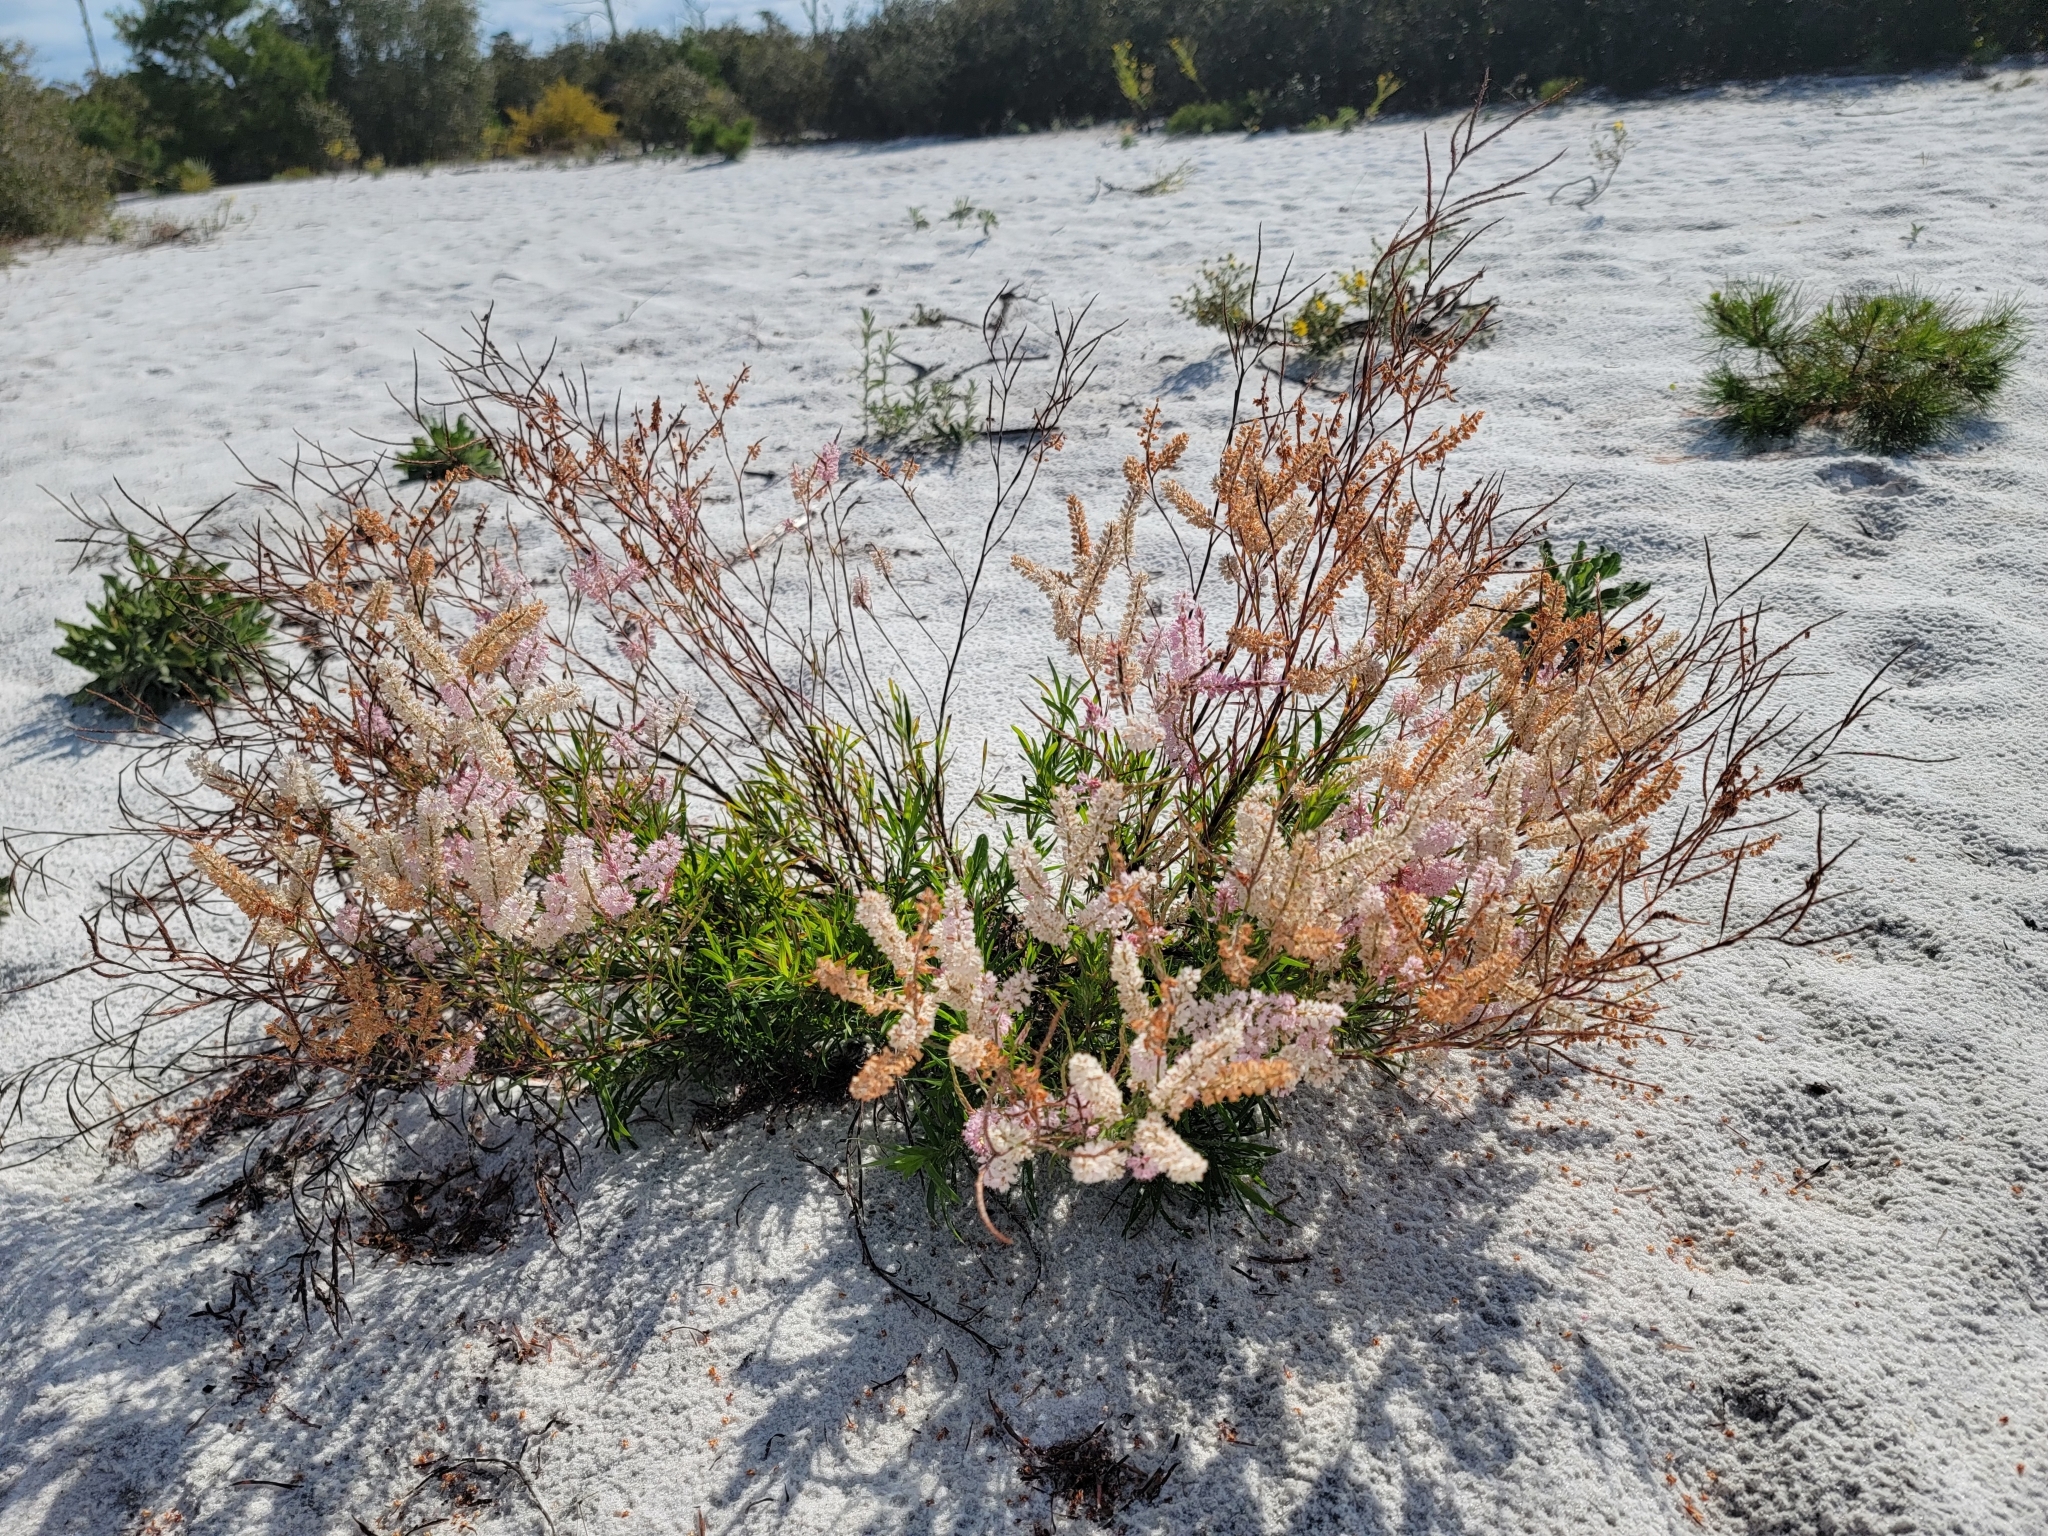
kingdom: Plantae
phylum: Tracheophyta
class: Magnoliopsida
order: Caryophyllales
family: Polygonaceae
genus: Polygonella
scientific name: Polygonella robusta
